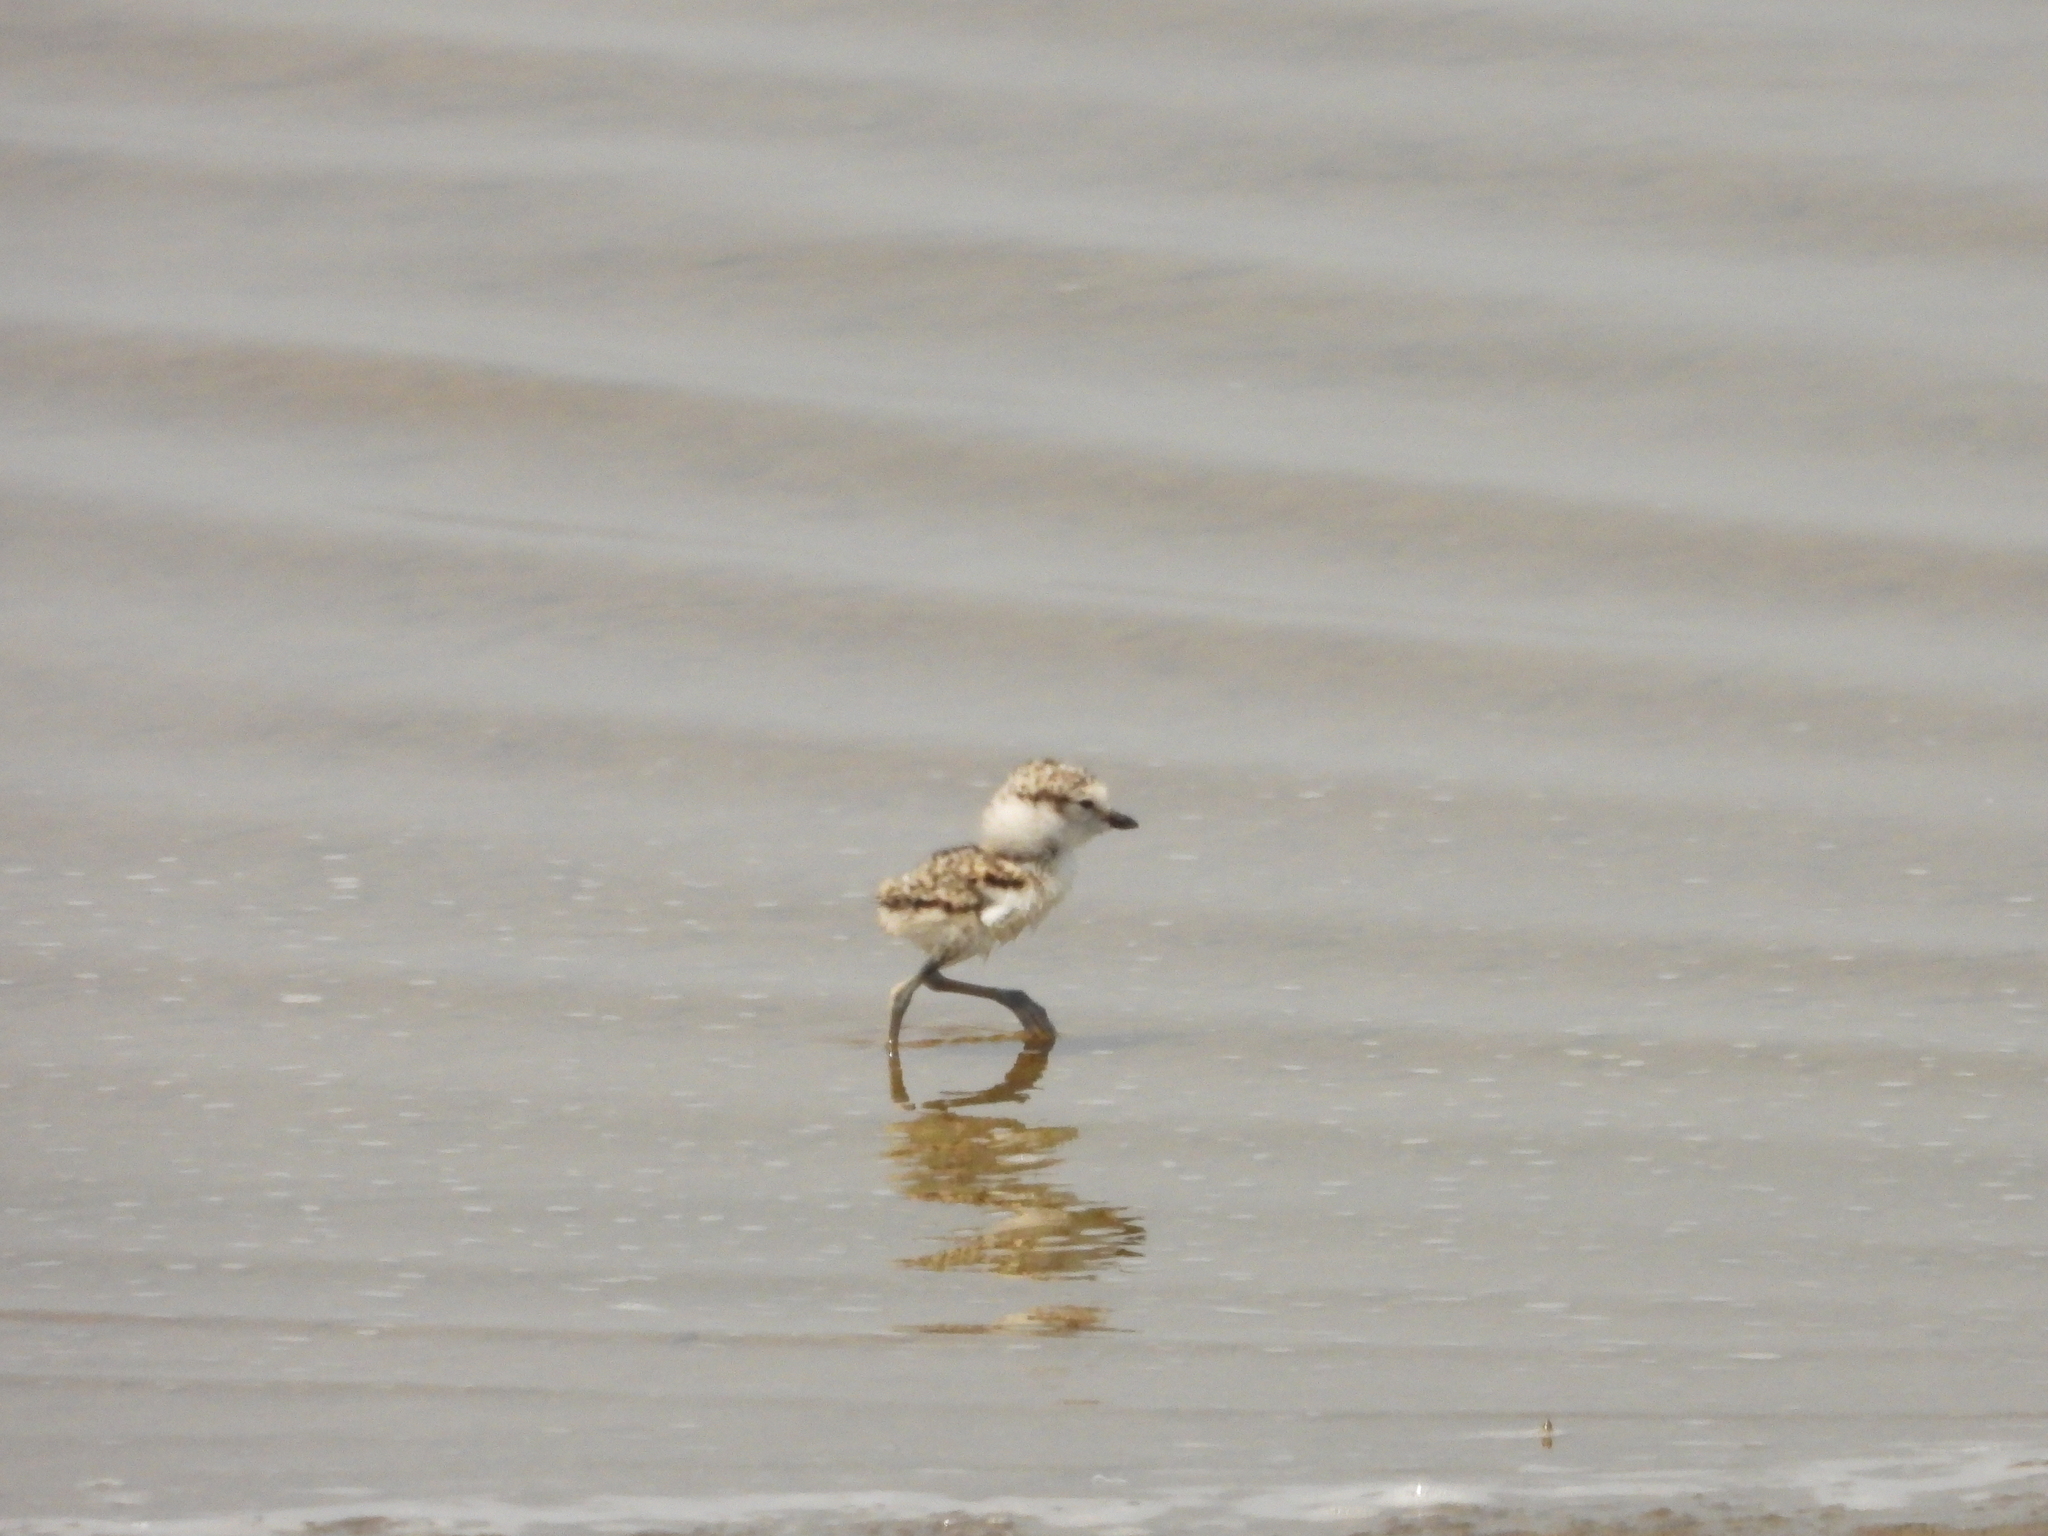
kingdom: Animalia
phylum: Chordata
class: Aves
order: Charadriiformes
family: Charadriidae
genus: Charadrius
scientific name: Charadrius alexandrinus
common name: Kentish plover
